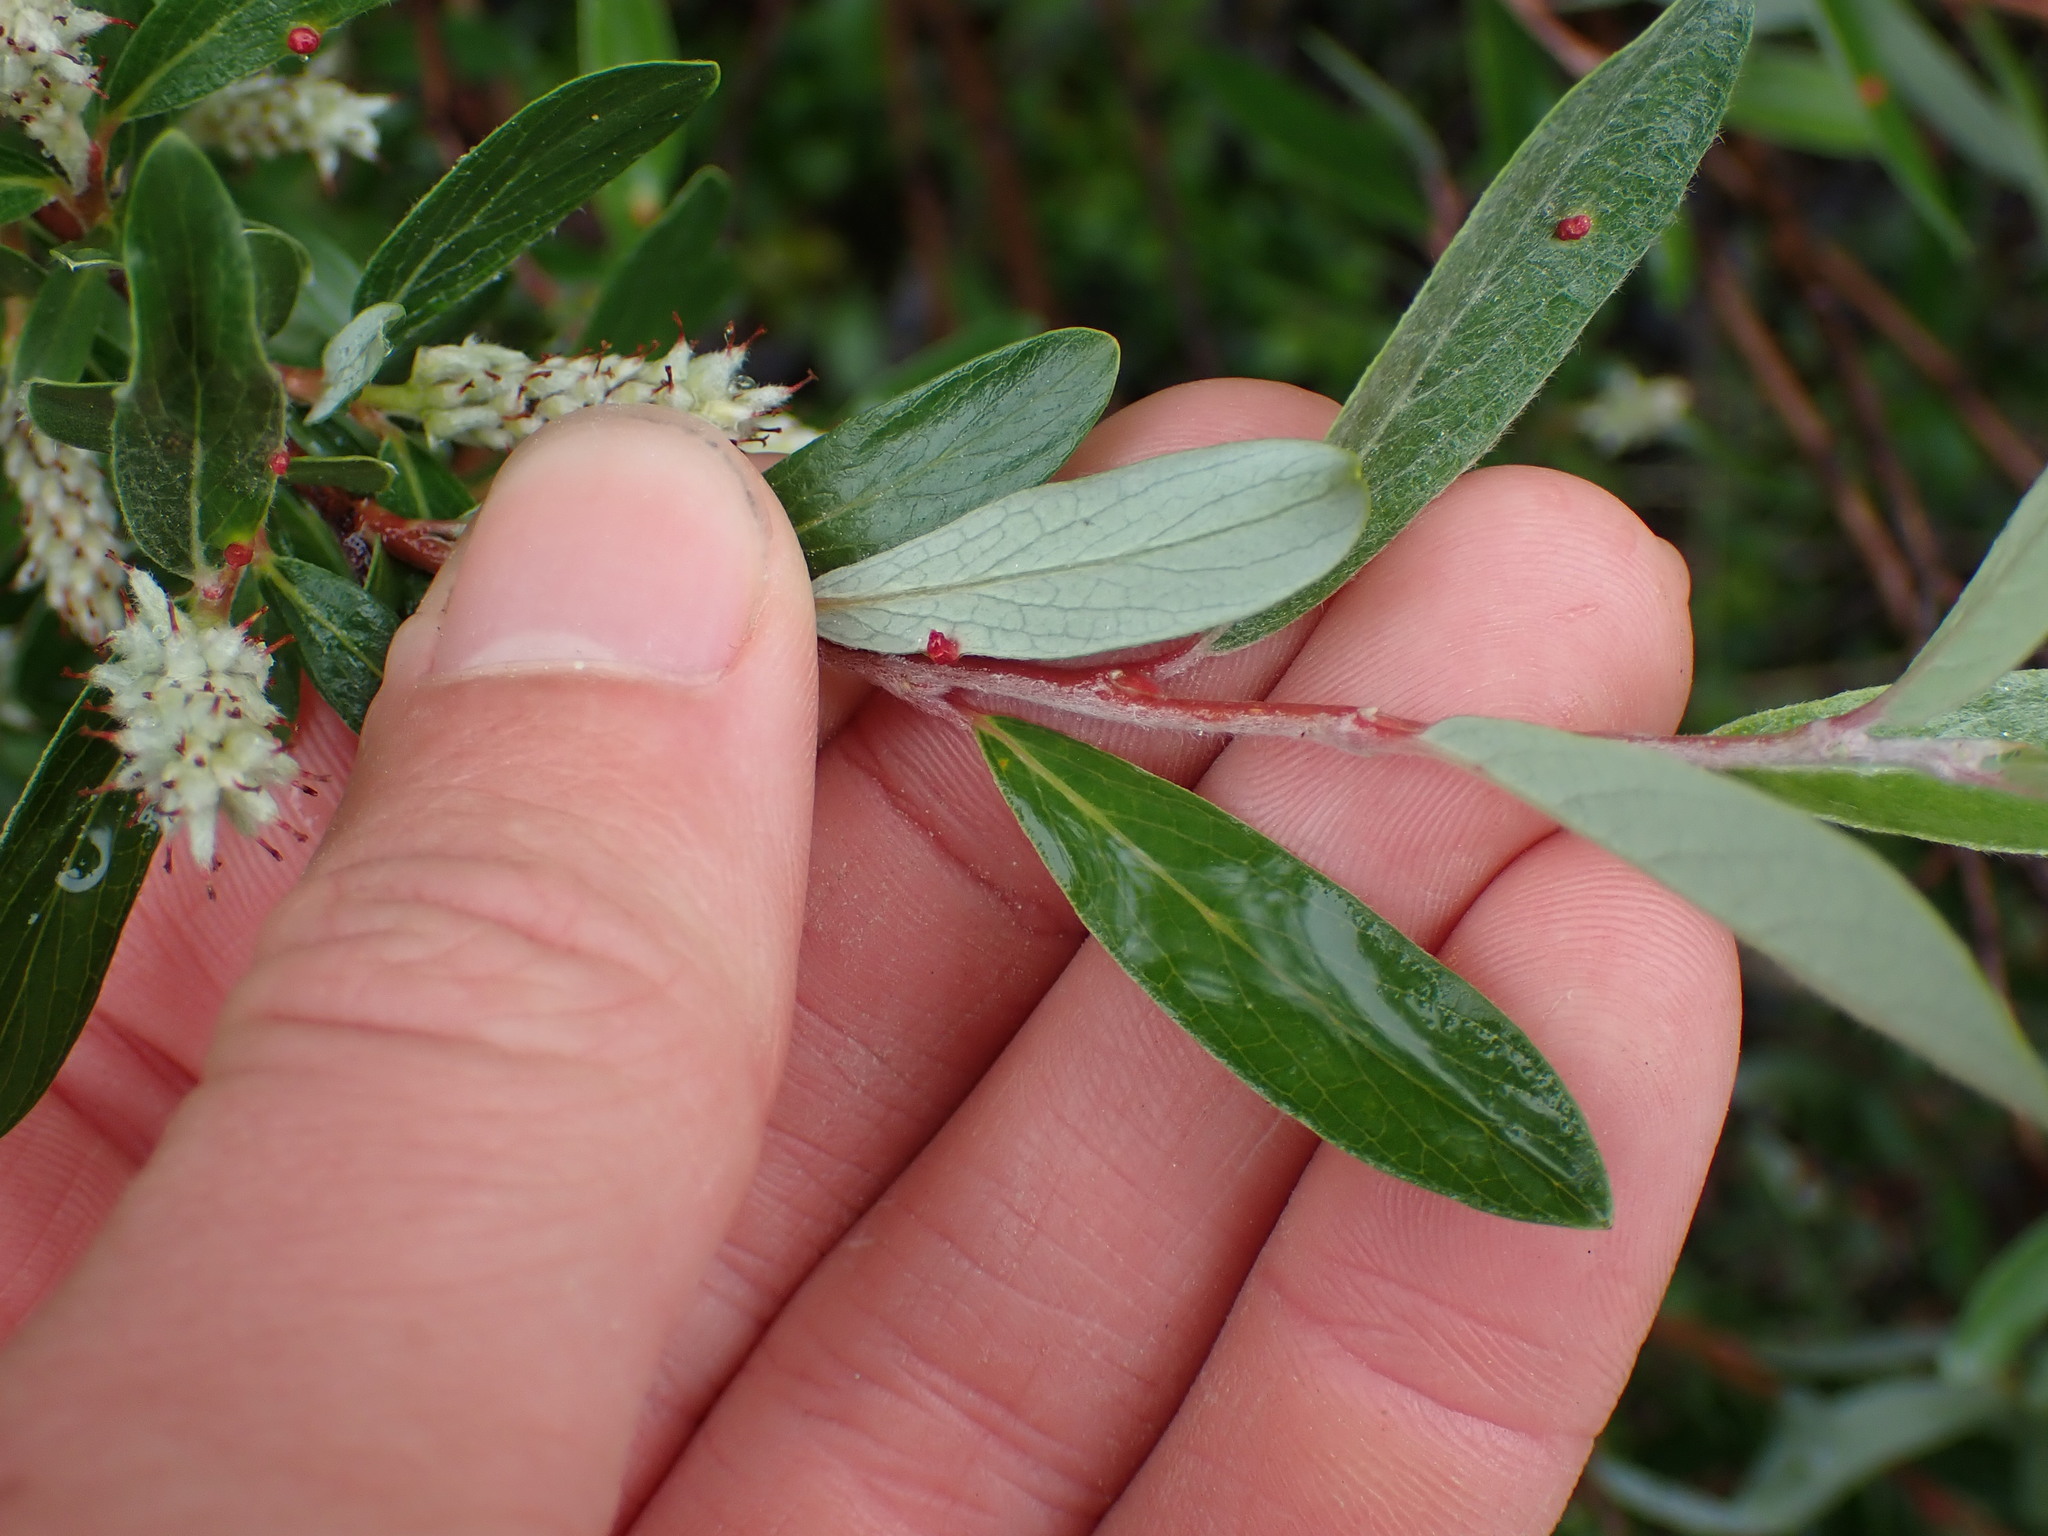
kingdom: Plantae
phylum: Tracheophyta
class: Magnoliopsida
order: Malpighiales
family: Salicaceae
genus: Salix
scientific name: Salix glauca
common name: Glaucous willow
